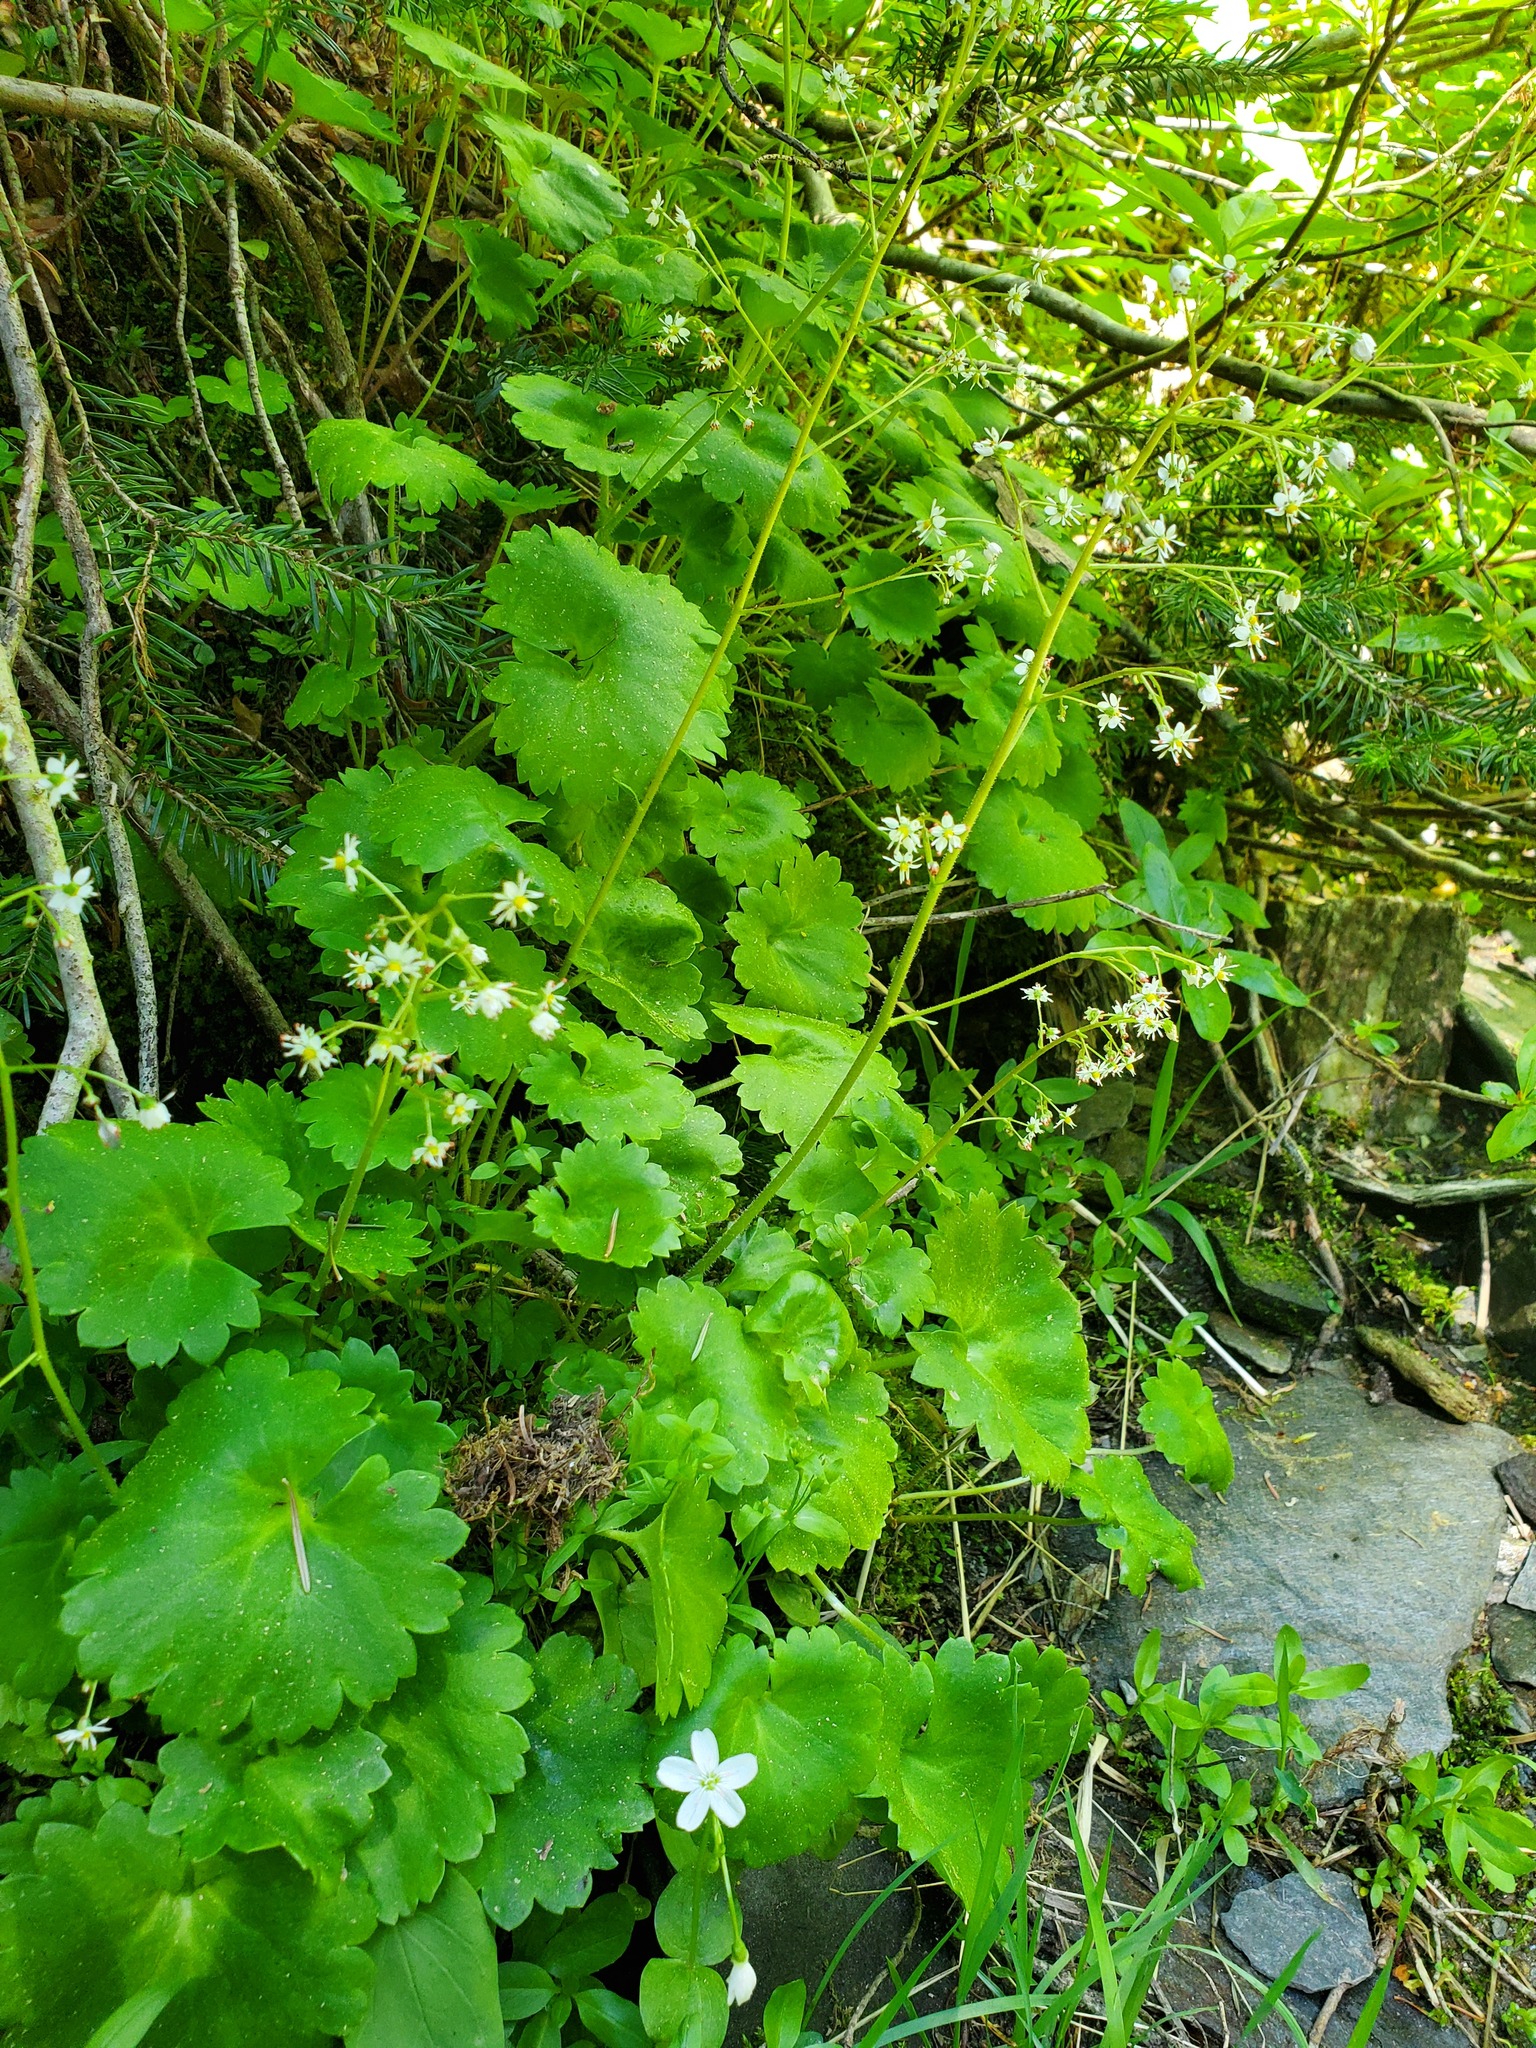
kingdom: Plantae
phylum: Tracheophyta
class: Magnoliopsida
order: Saxifragales
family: Saxifragaceae
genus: Micranthes
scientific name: Micranthes mertensiana
